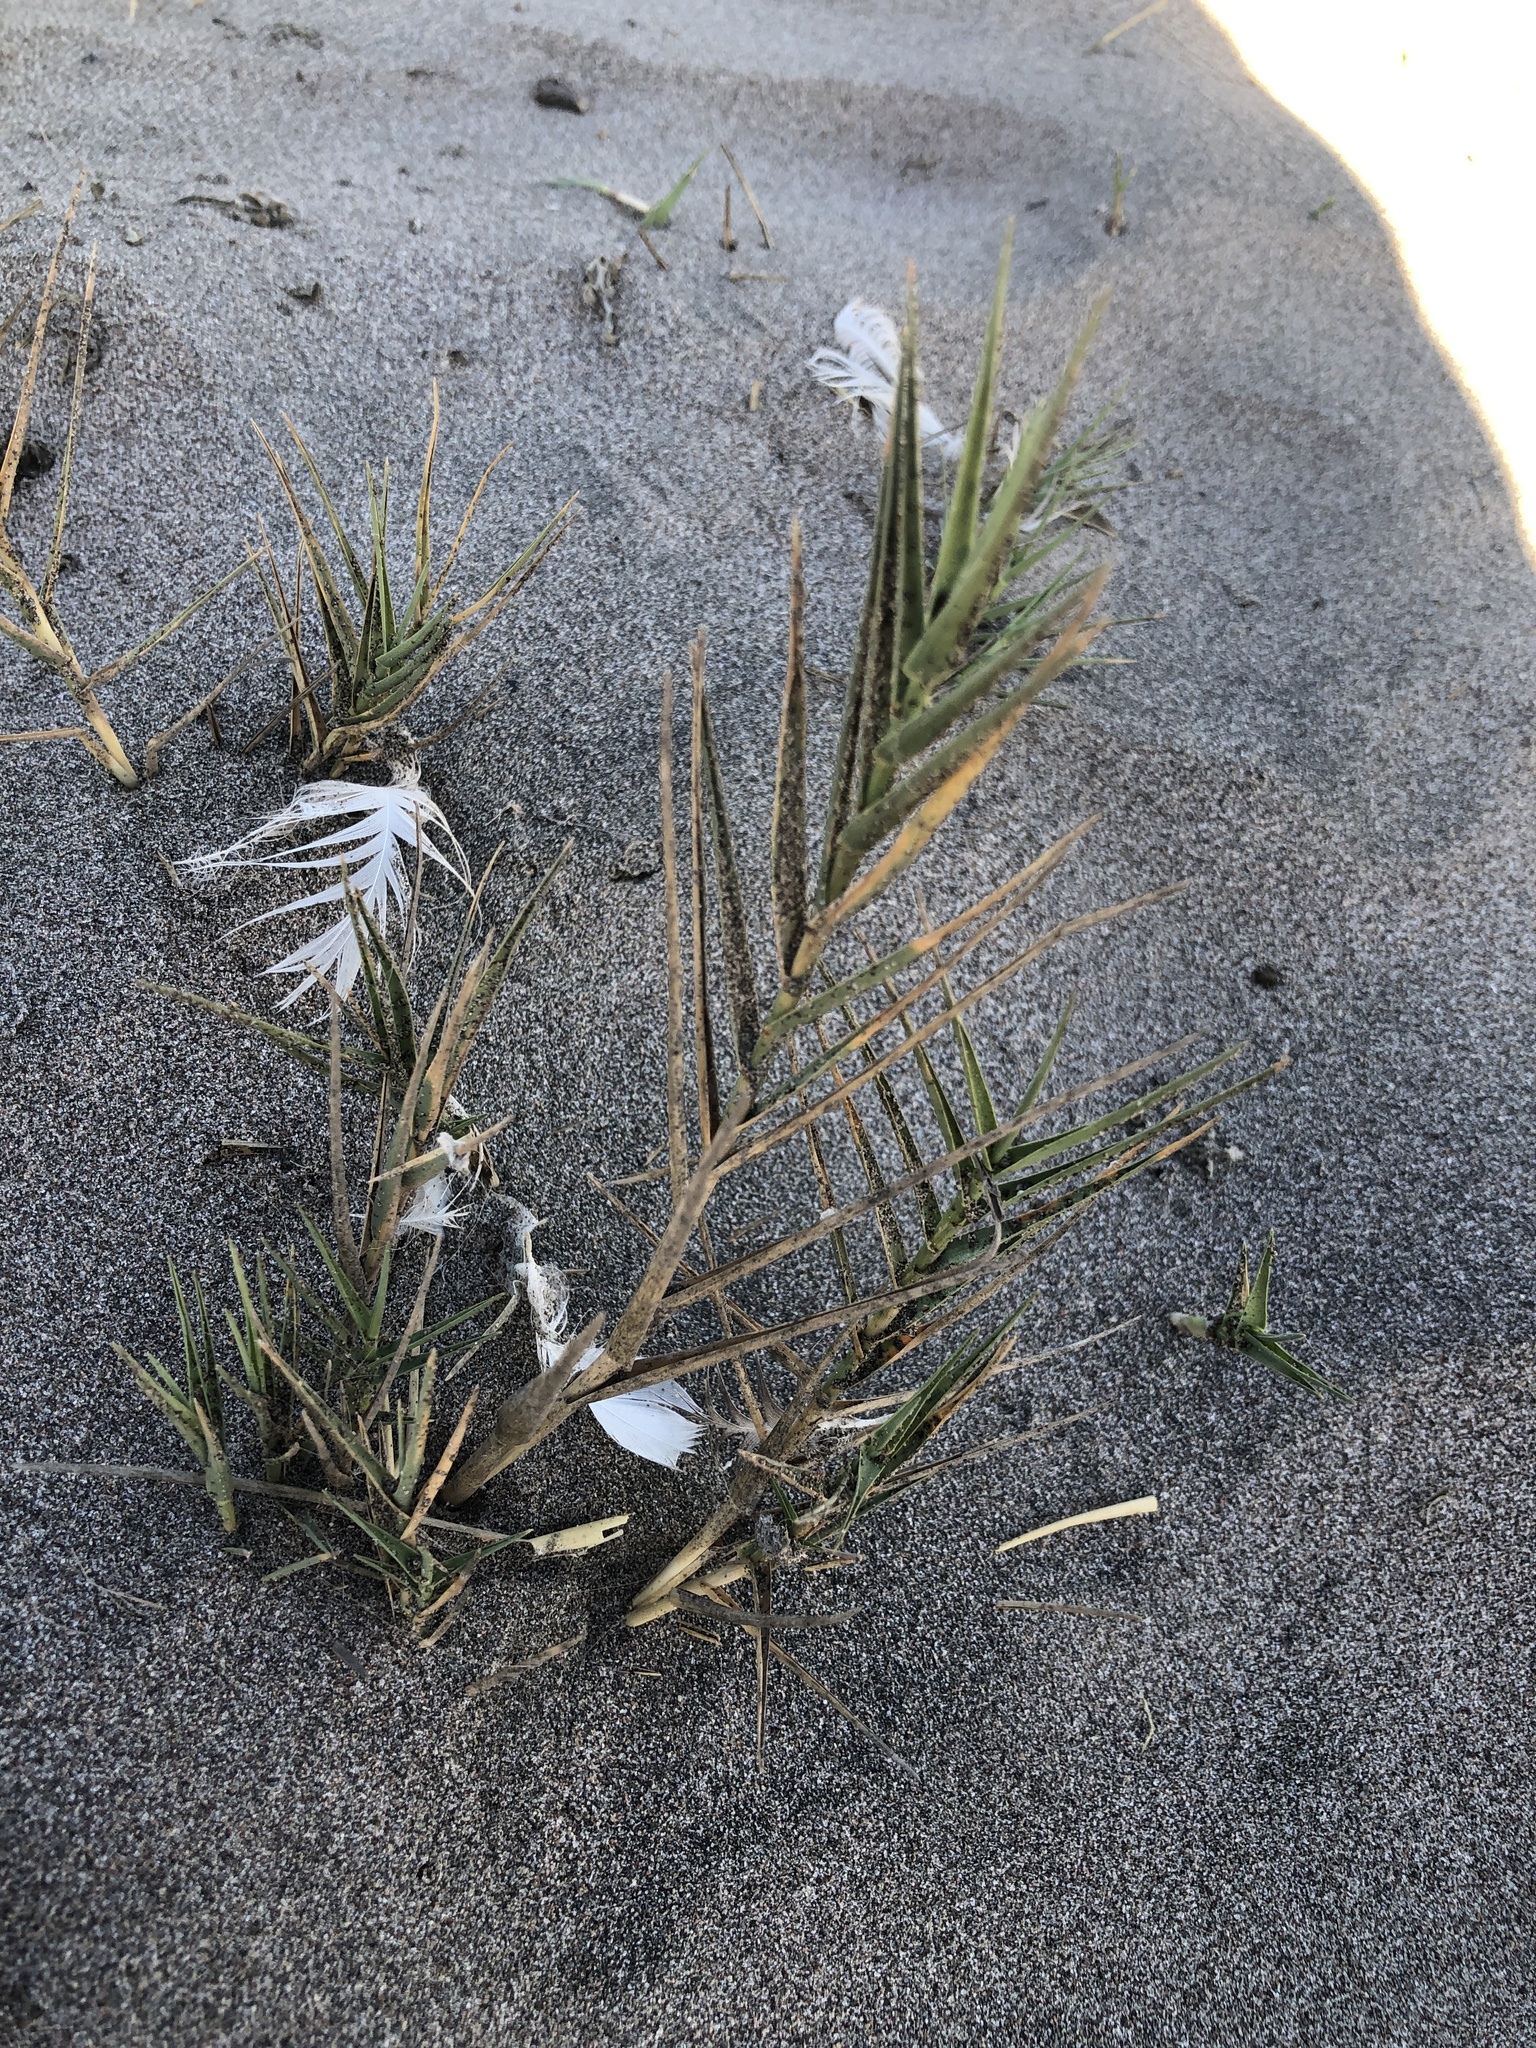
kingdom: Plantae
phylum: Tracheophyta
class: Liliopsida
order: Poales
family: Poaceae
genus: Distichlis
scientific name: Distichlis spicata
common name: Saltgrass
